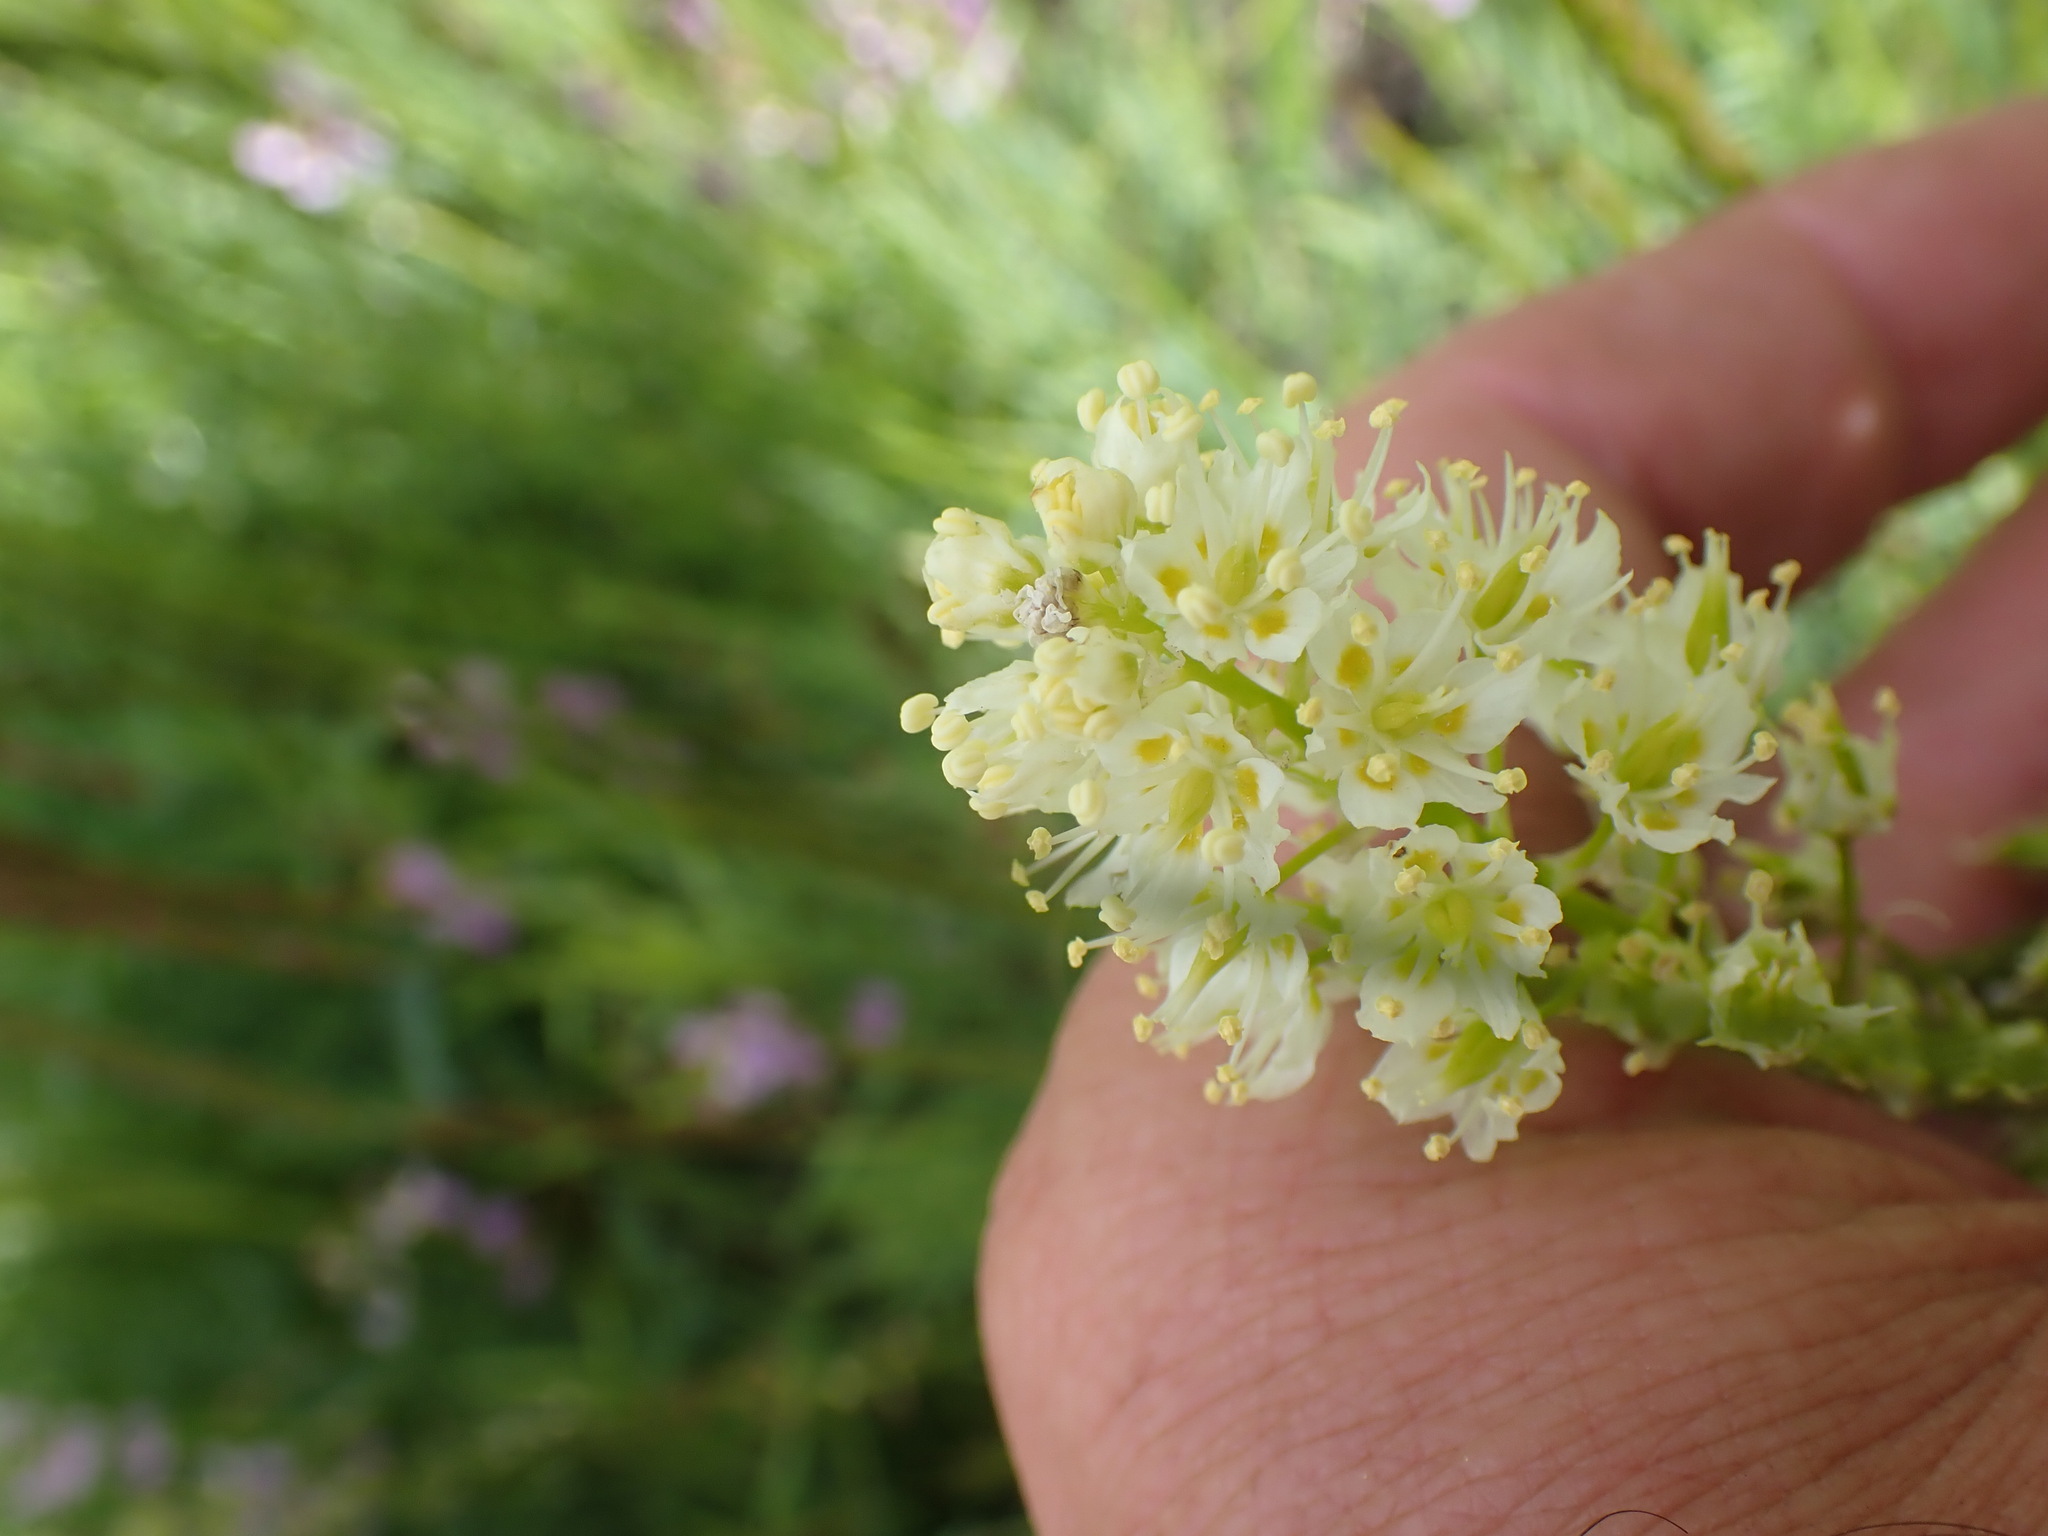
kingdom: Plantae
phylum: Tracheophyta
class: Liliopsida
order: Liliales
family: Melanthiaceae
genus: Toxicoscordion
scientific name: Toxicoscordion venenosum
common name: Meadow death camas
